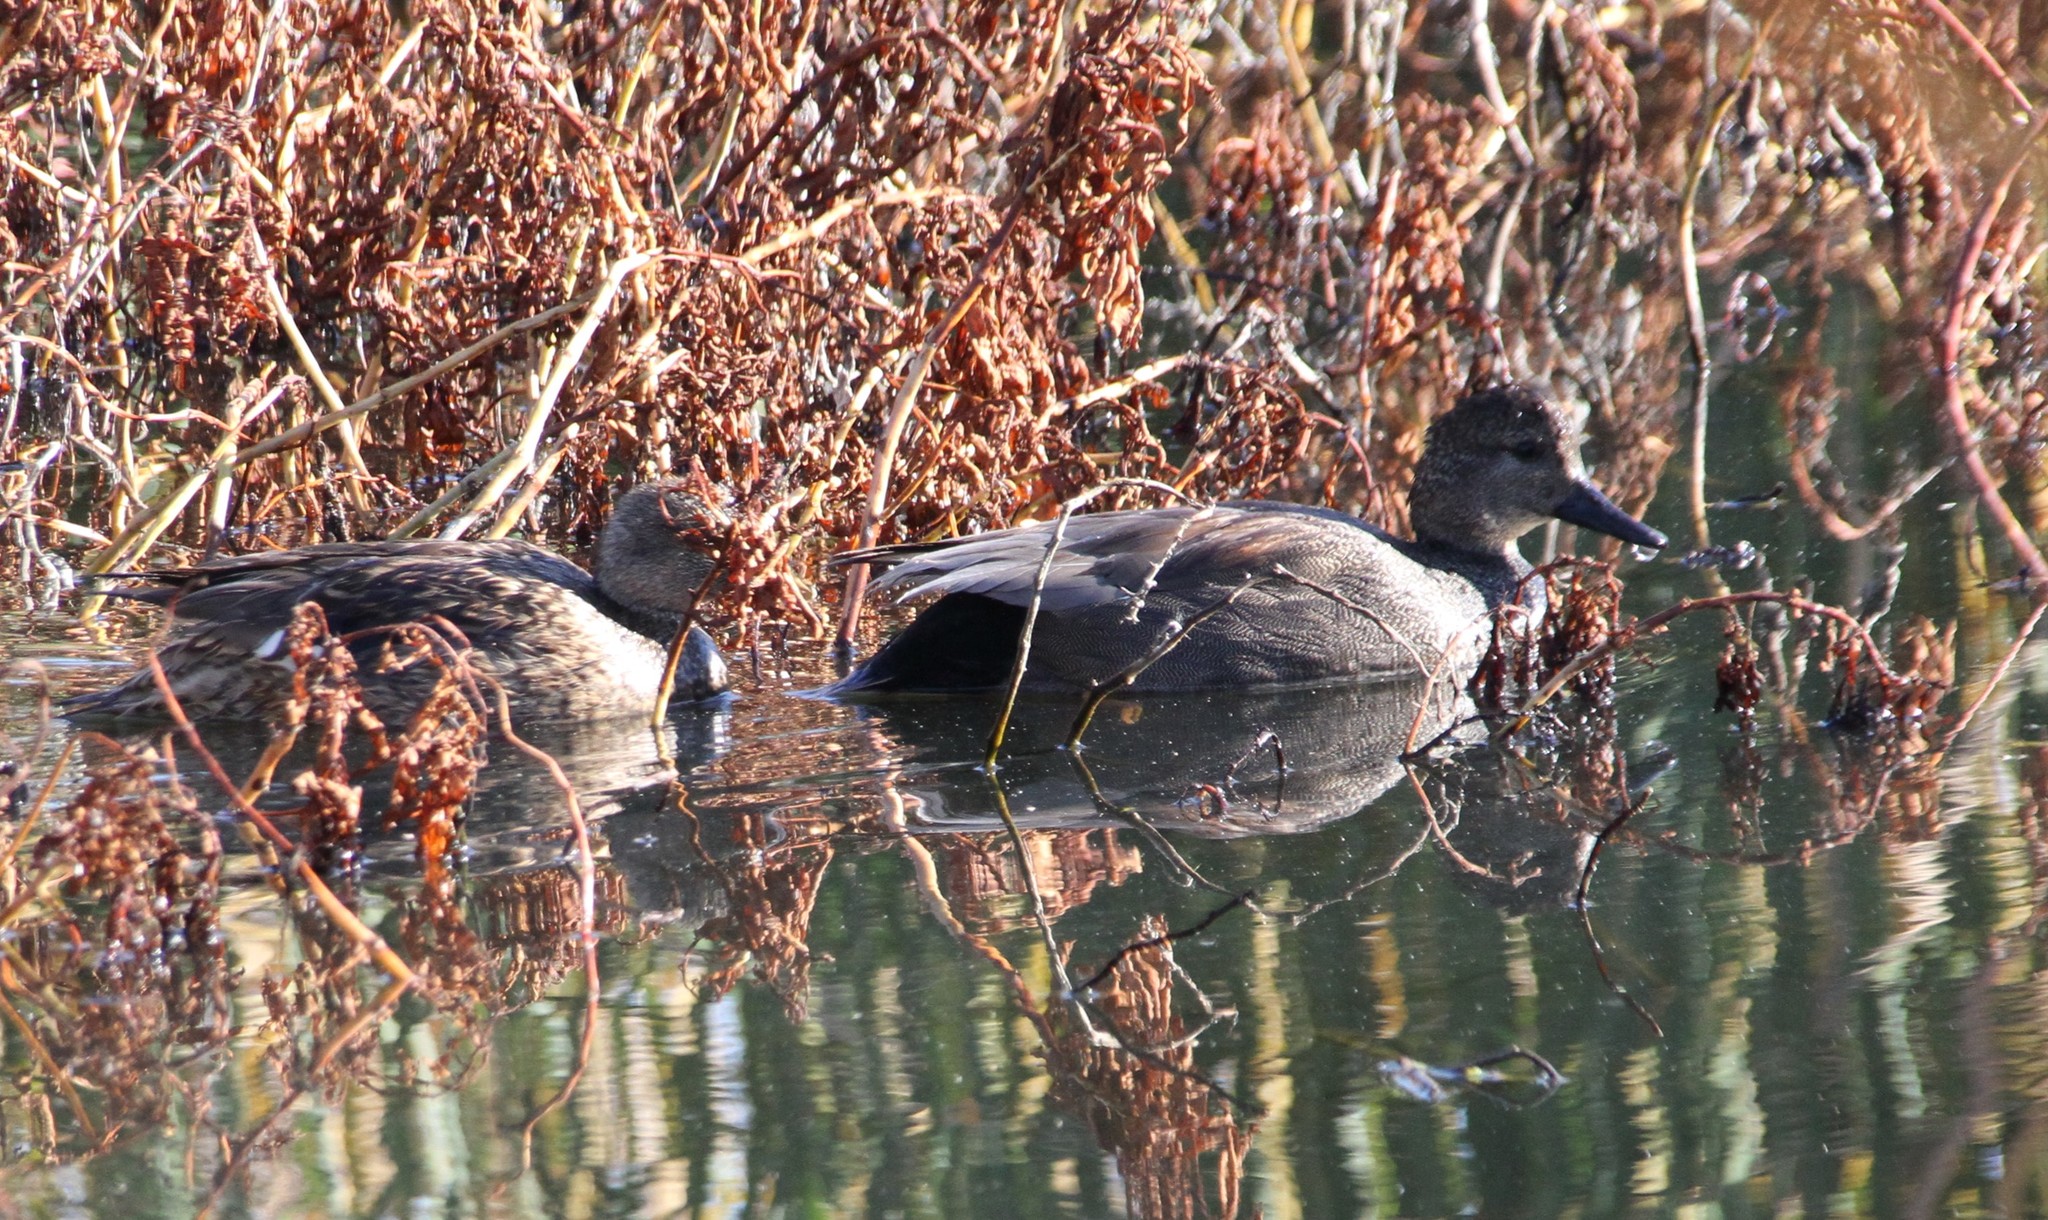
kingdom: Animalia
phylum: Chordata
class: Aves
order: Anseriformes
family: Anatidae
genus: Mareca
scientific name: Mareca strepera
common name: Gadwall
